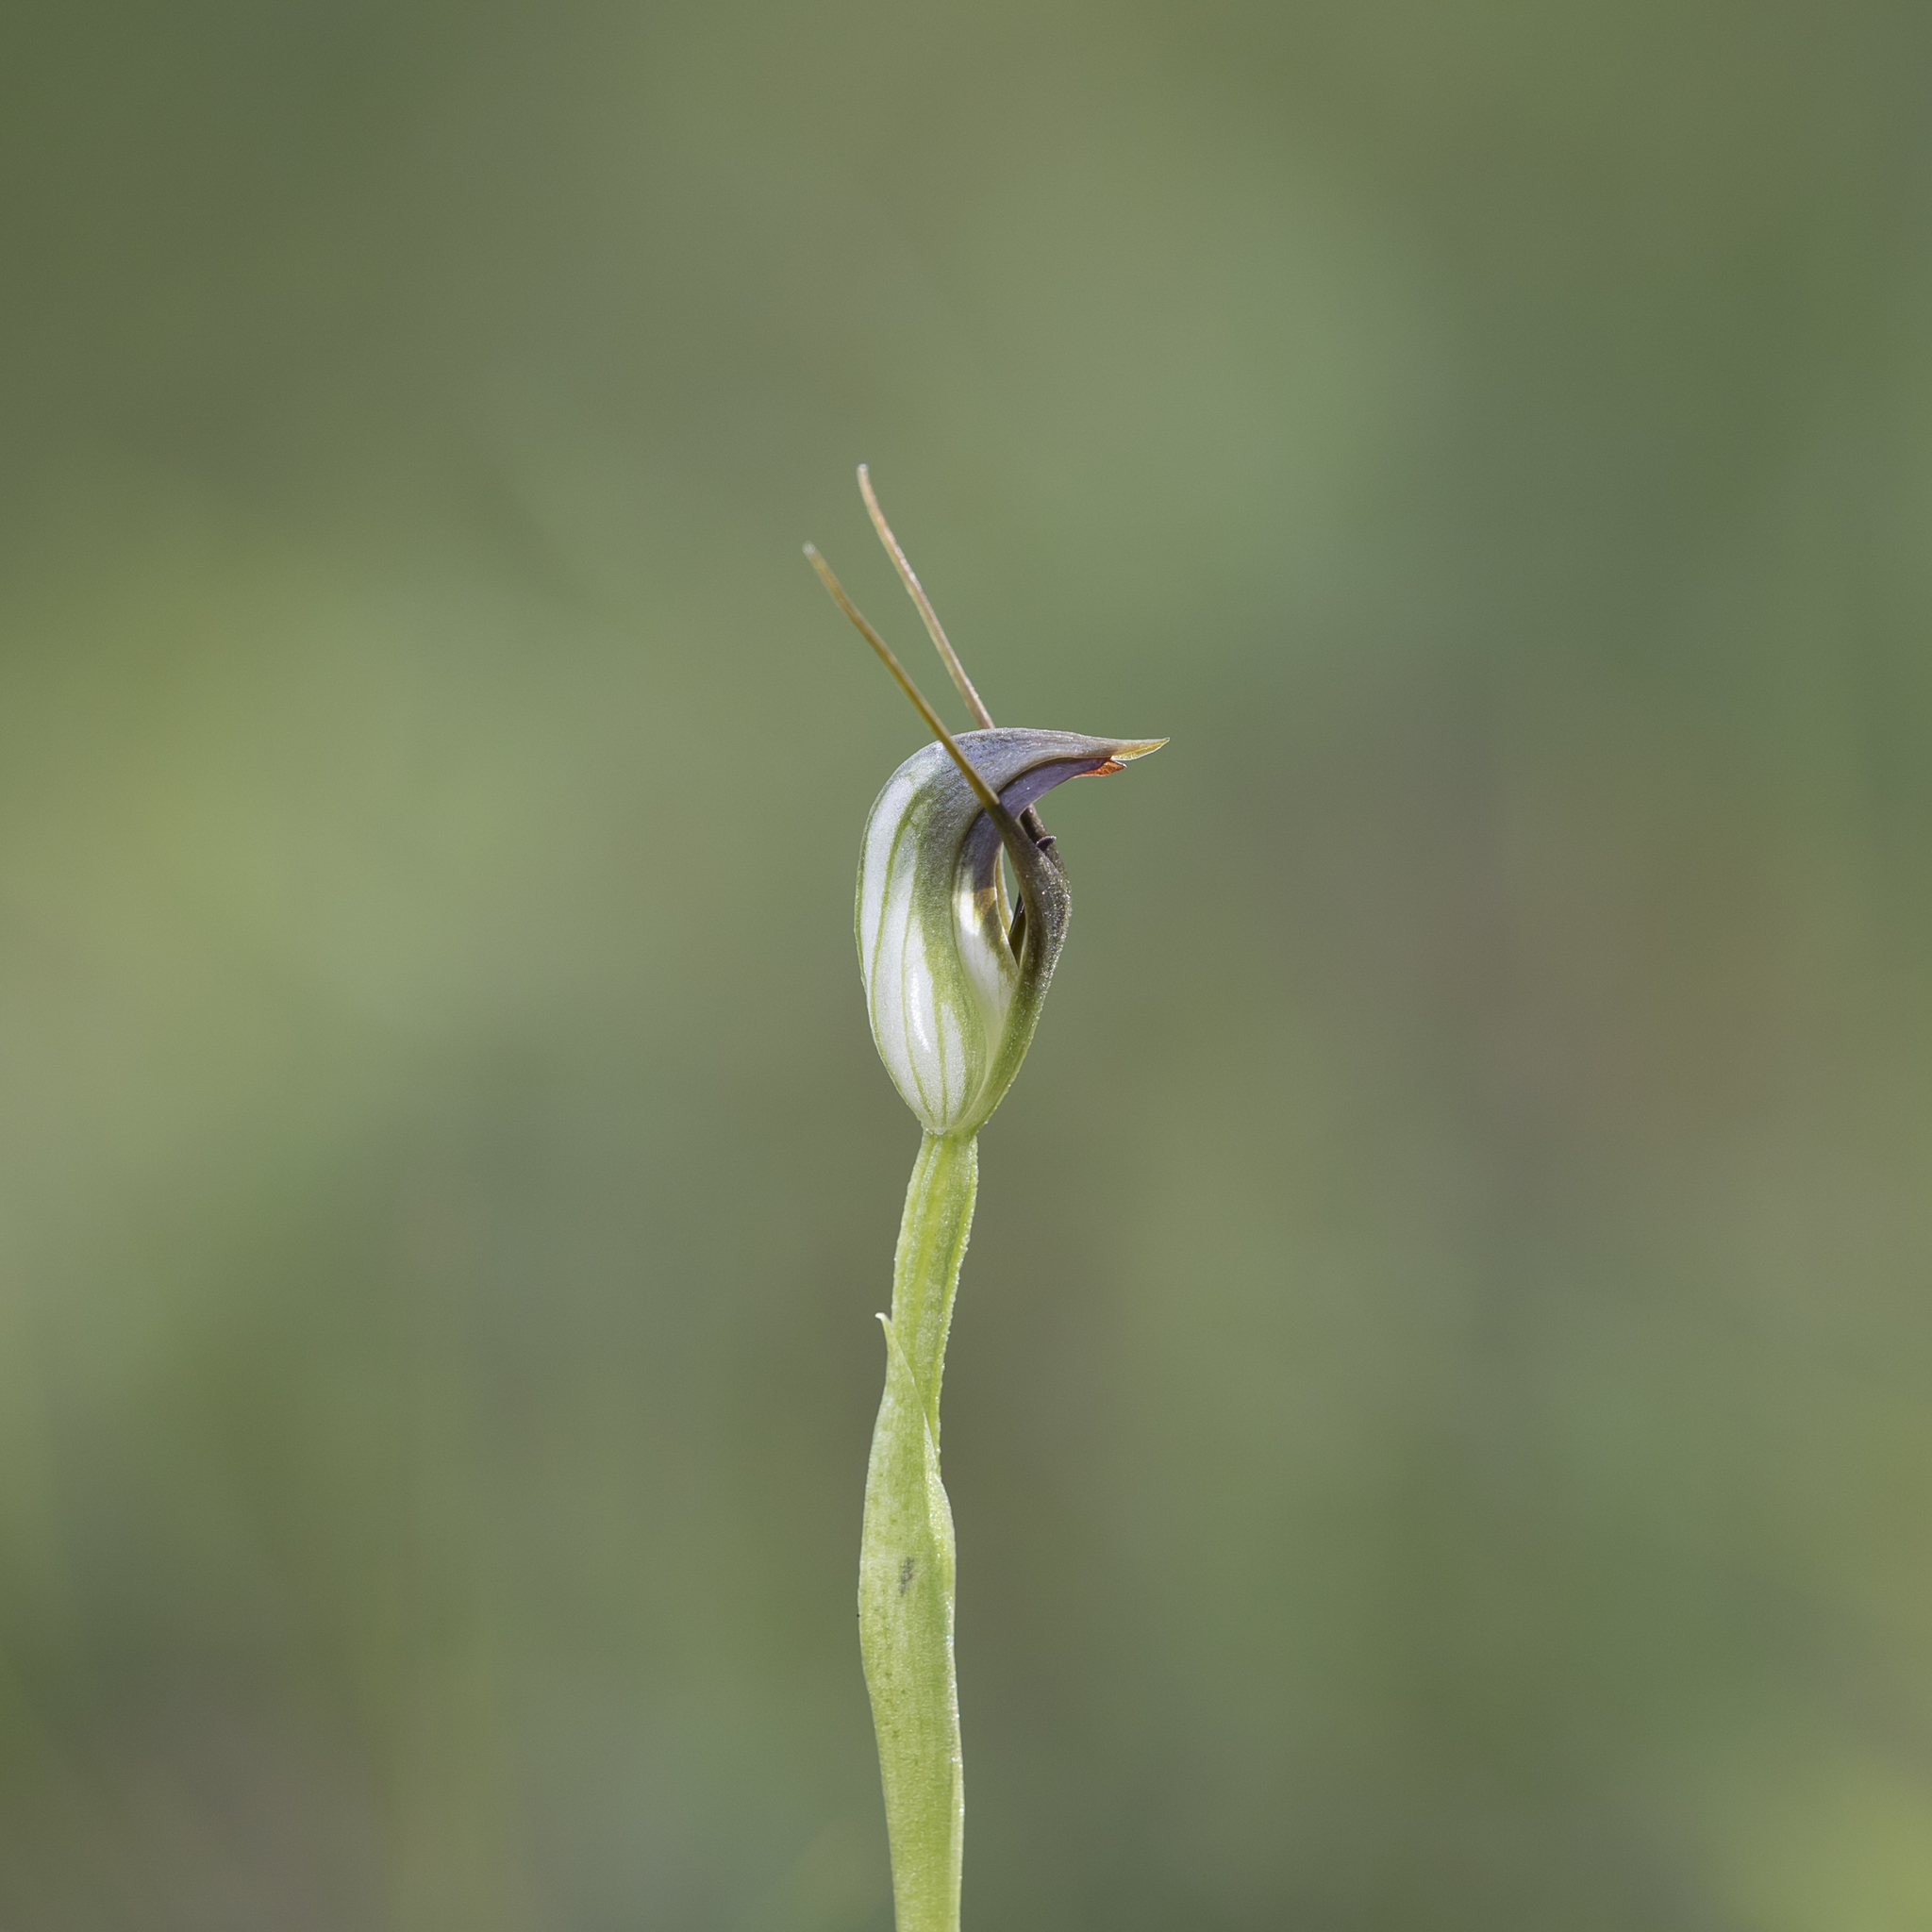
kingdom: Plantae
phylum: Tracheophyta
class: Liliopsida
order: Asparagales
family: Orchidaceae
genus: Pterostylis
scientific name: Pterostylis pedunculata
